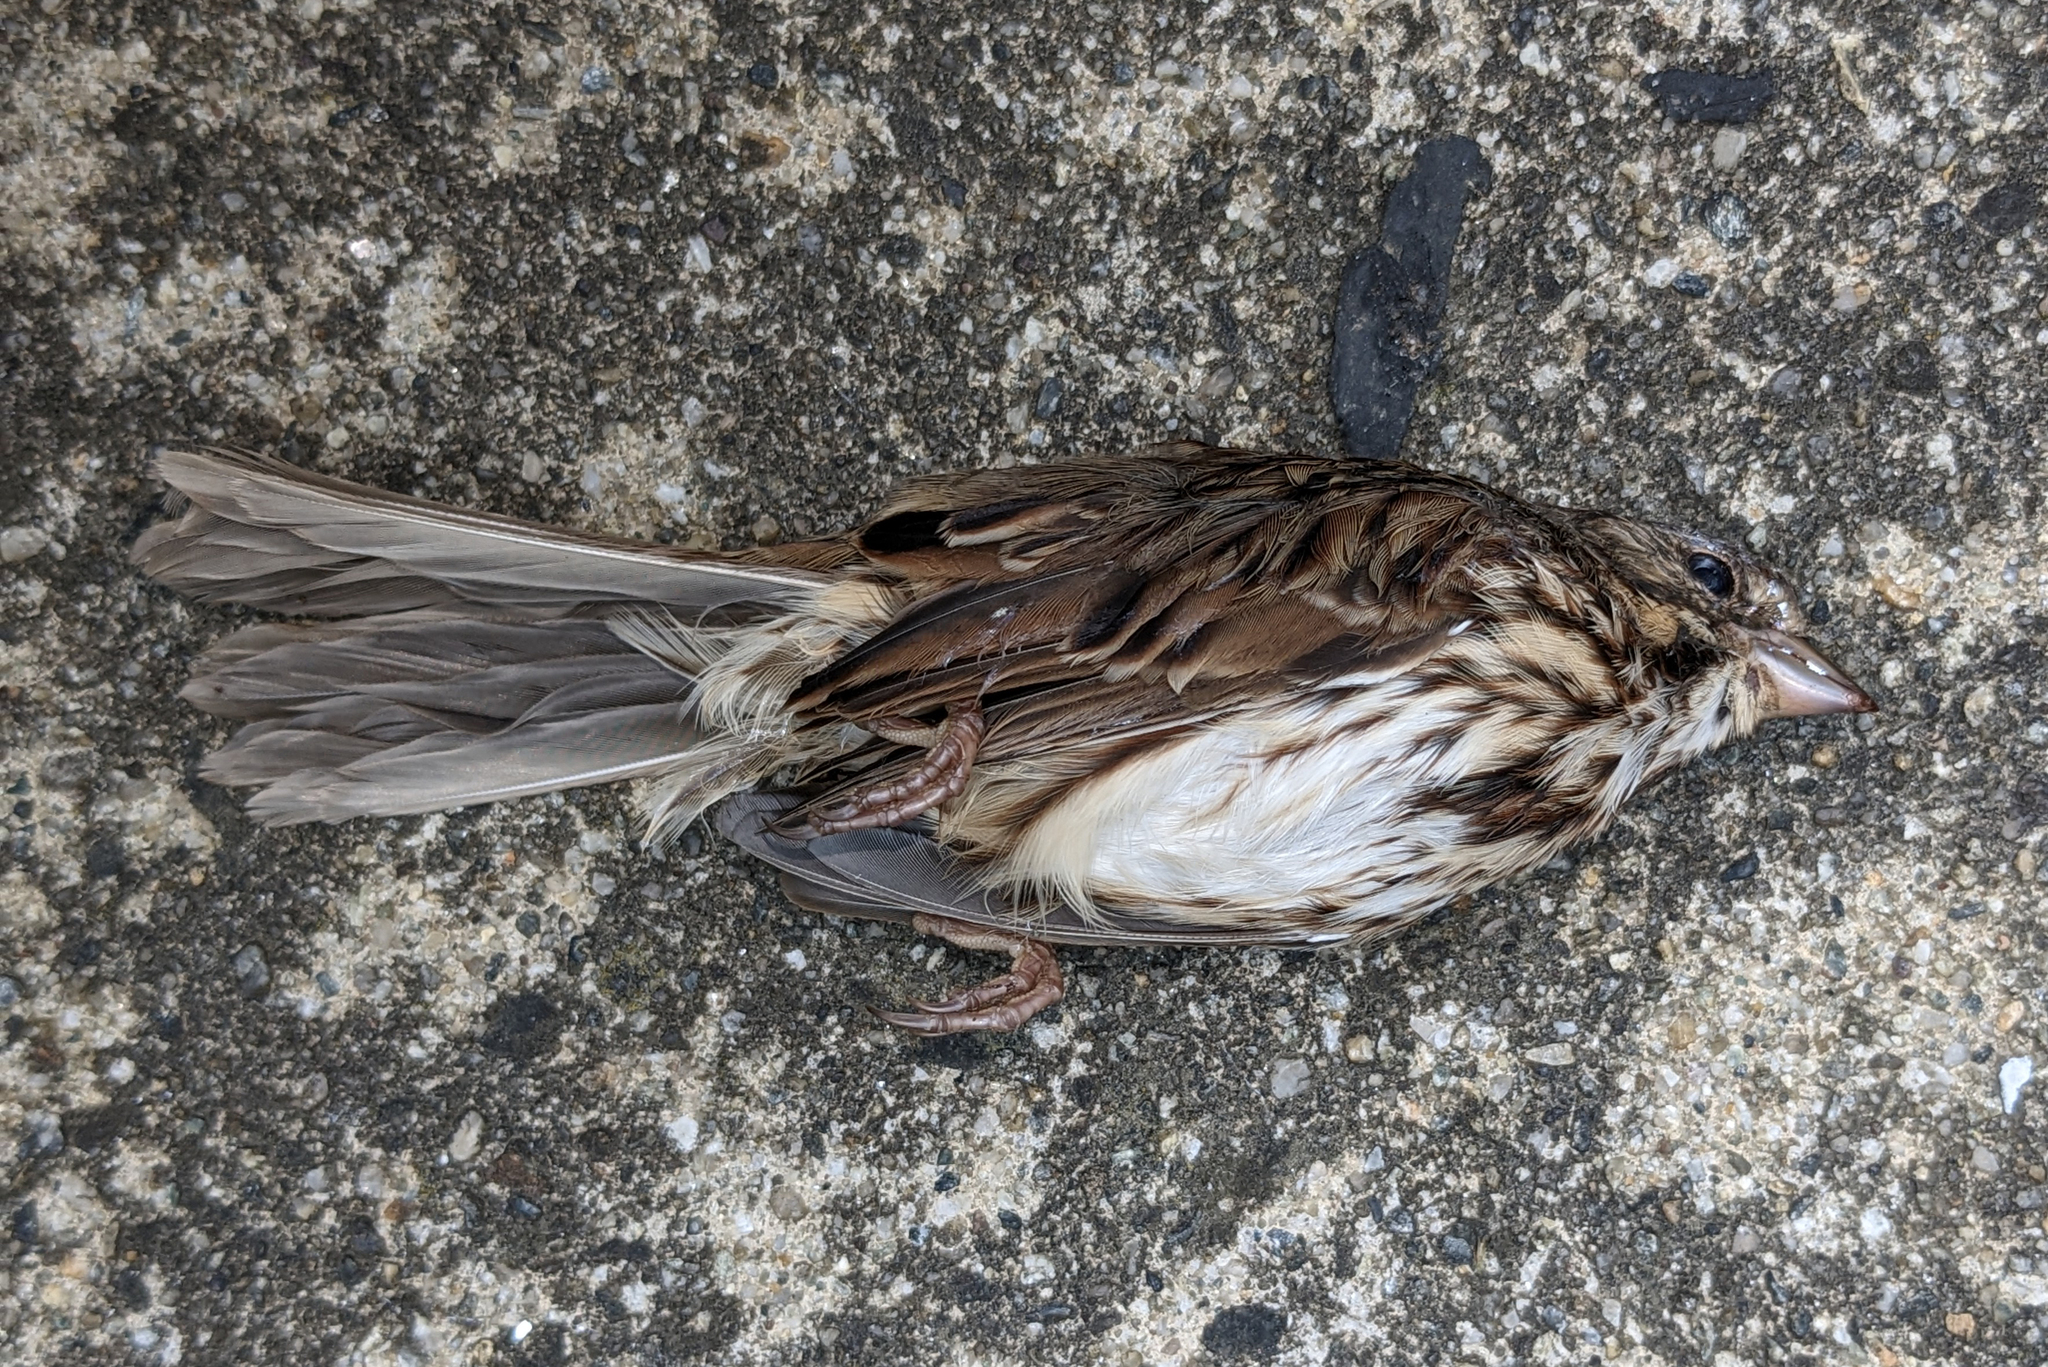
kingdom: Animalia
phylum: Chordata
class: Aves
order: Passeriformes
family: Passerellidae
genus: Melospiza
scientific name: Melospiza melodia
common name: Song sparrow
